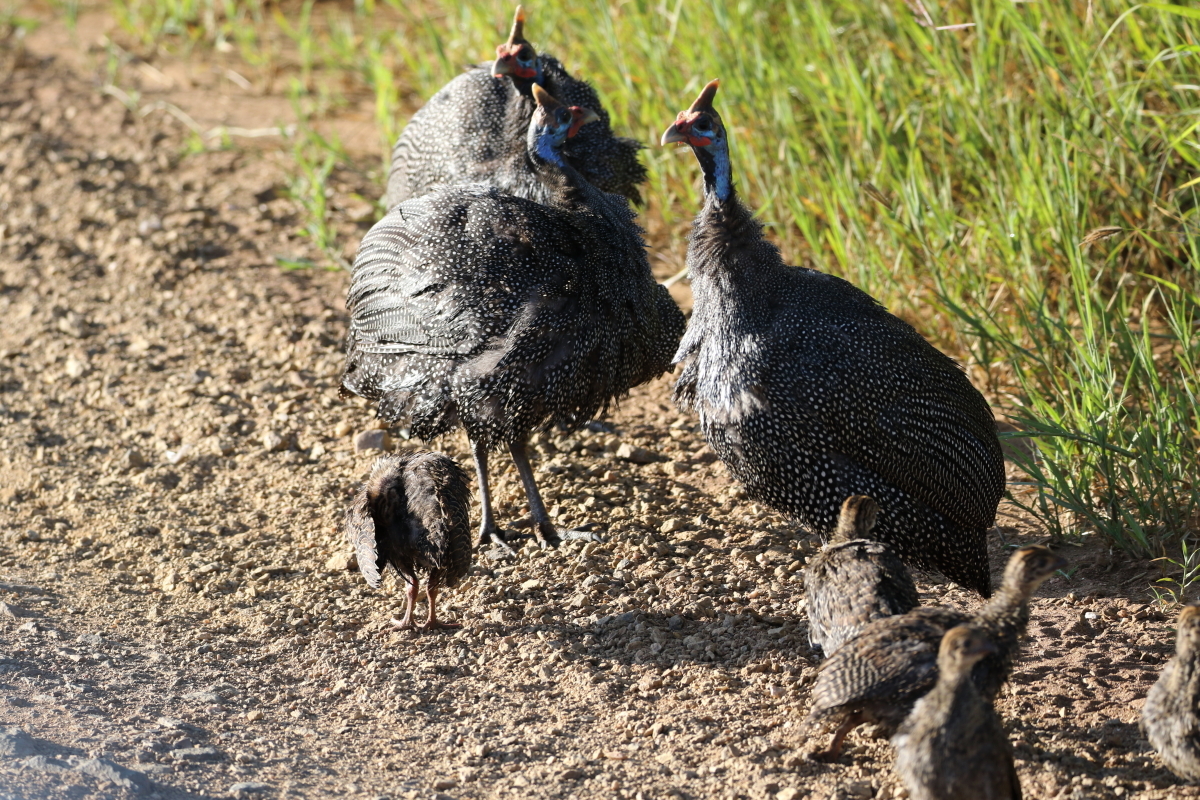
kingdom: Animalia
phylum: Chordata
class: Aves
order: Galliformes
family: Numididae
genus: Numida
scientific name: Numida meleagris
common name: Helmeted guineafowl
